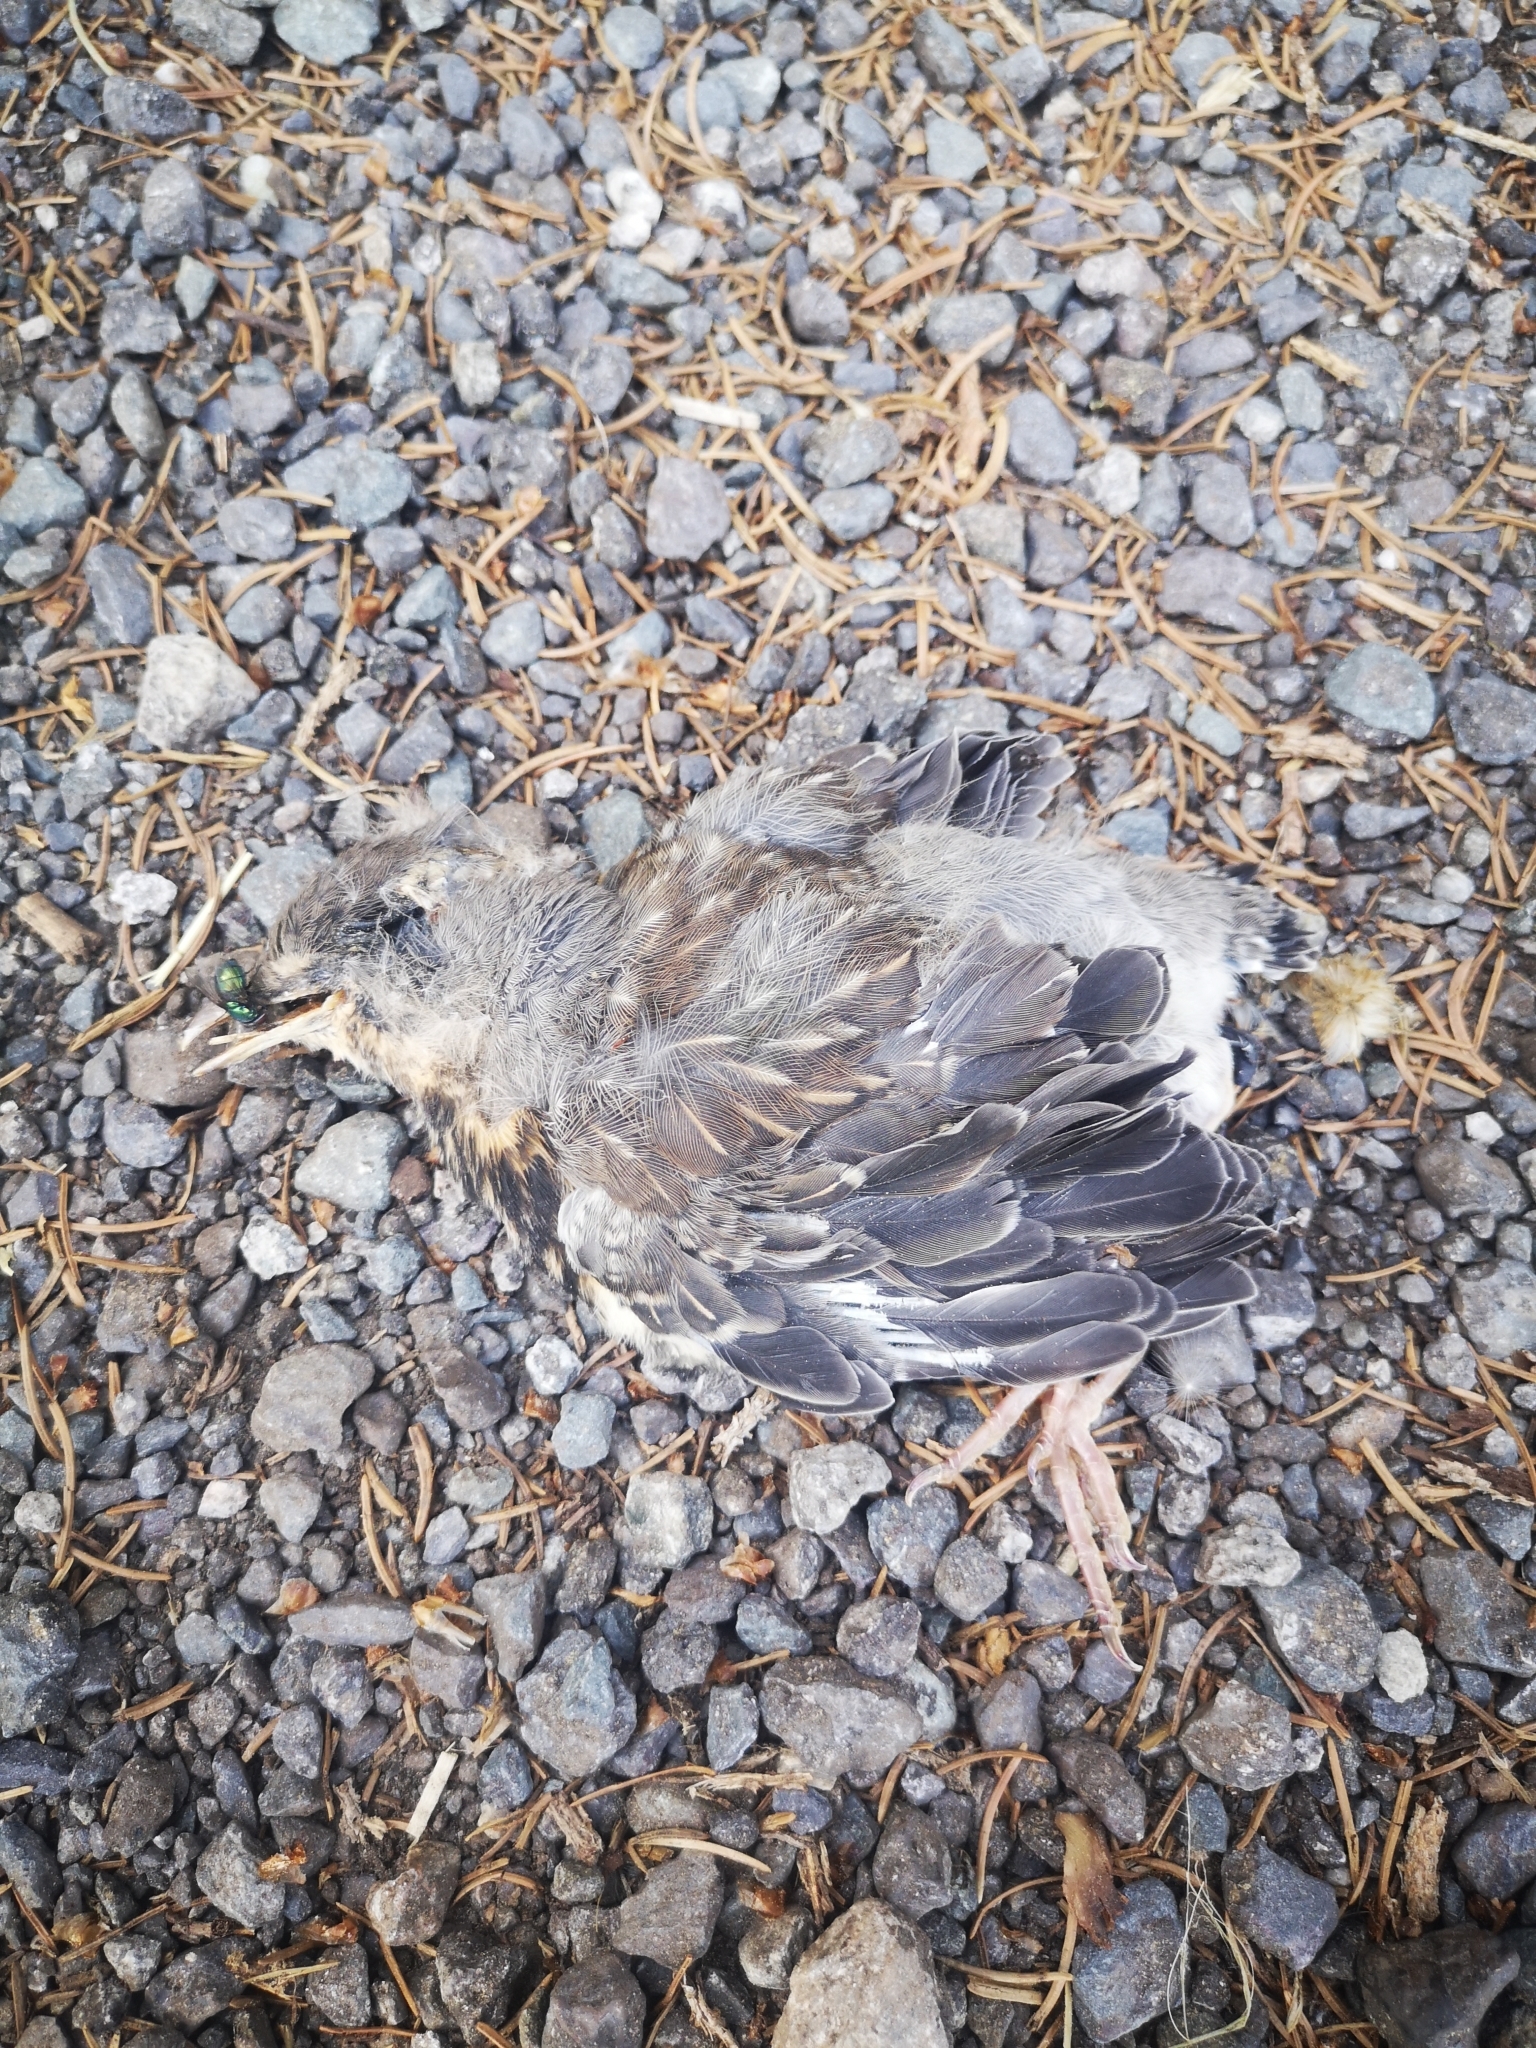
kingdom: Animalia
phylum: Chordata
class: Aves
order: Passeriformes
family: Turdidae
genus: Turdus
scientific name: Turdus pilaris
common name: Fieldfare
